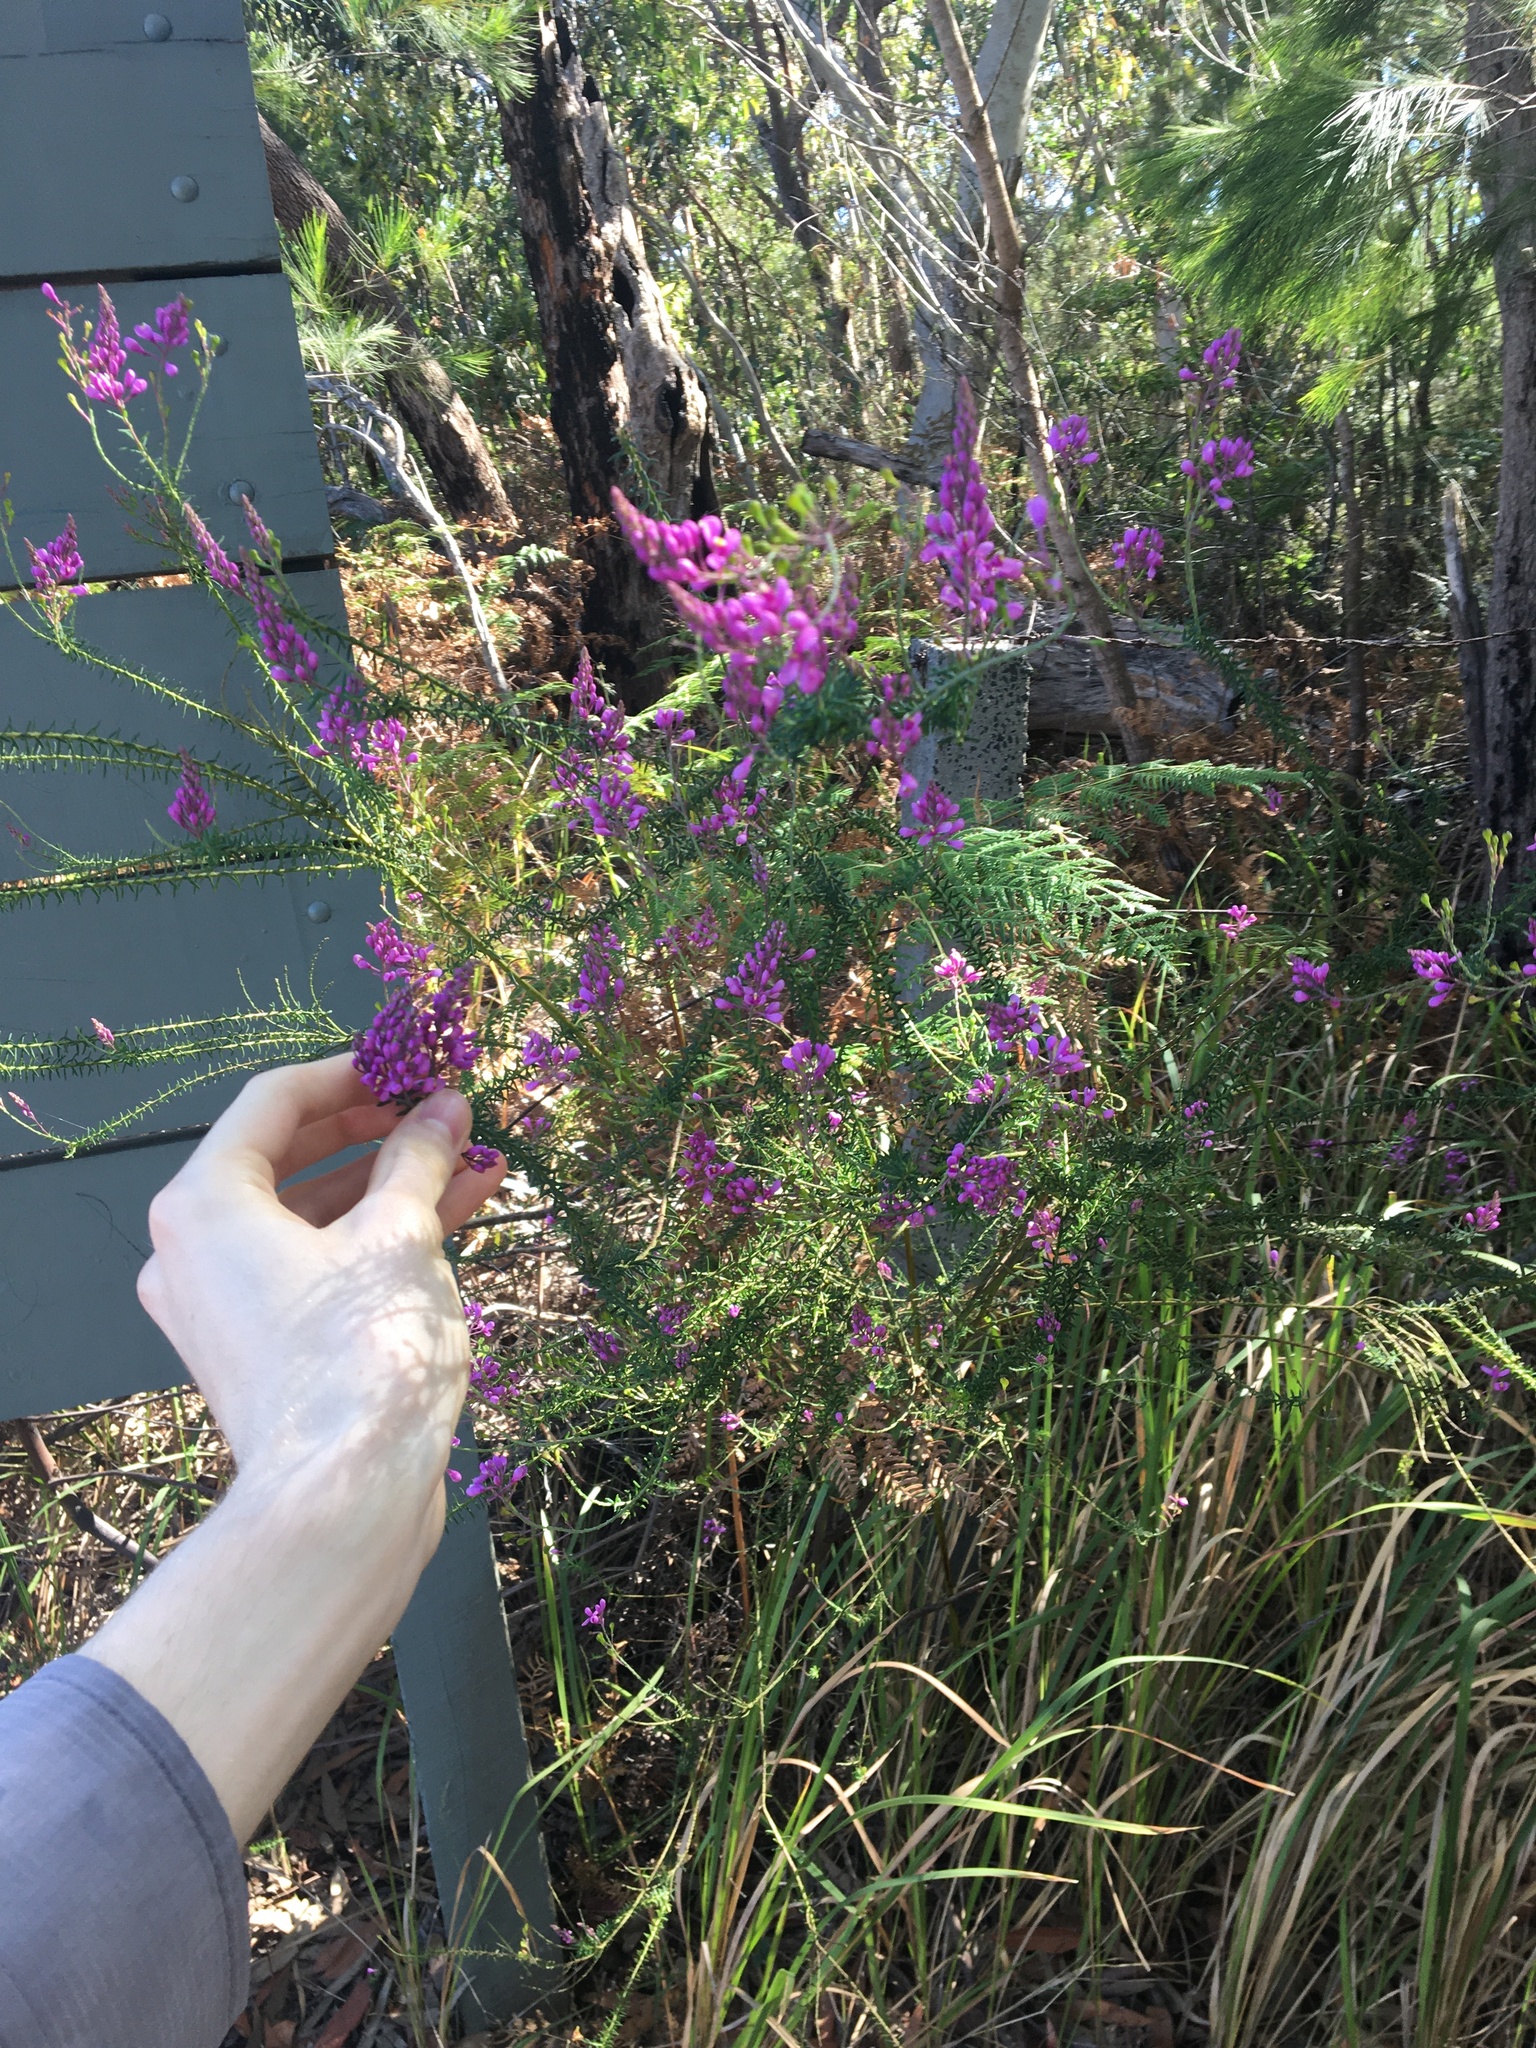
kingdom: Plantae
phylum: Tracheophyta
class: Magnoliopsida
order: Fabales
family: Polygalaceae
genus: Comesperma
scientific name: Comesperma ericinum
